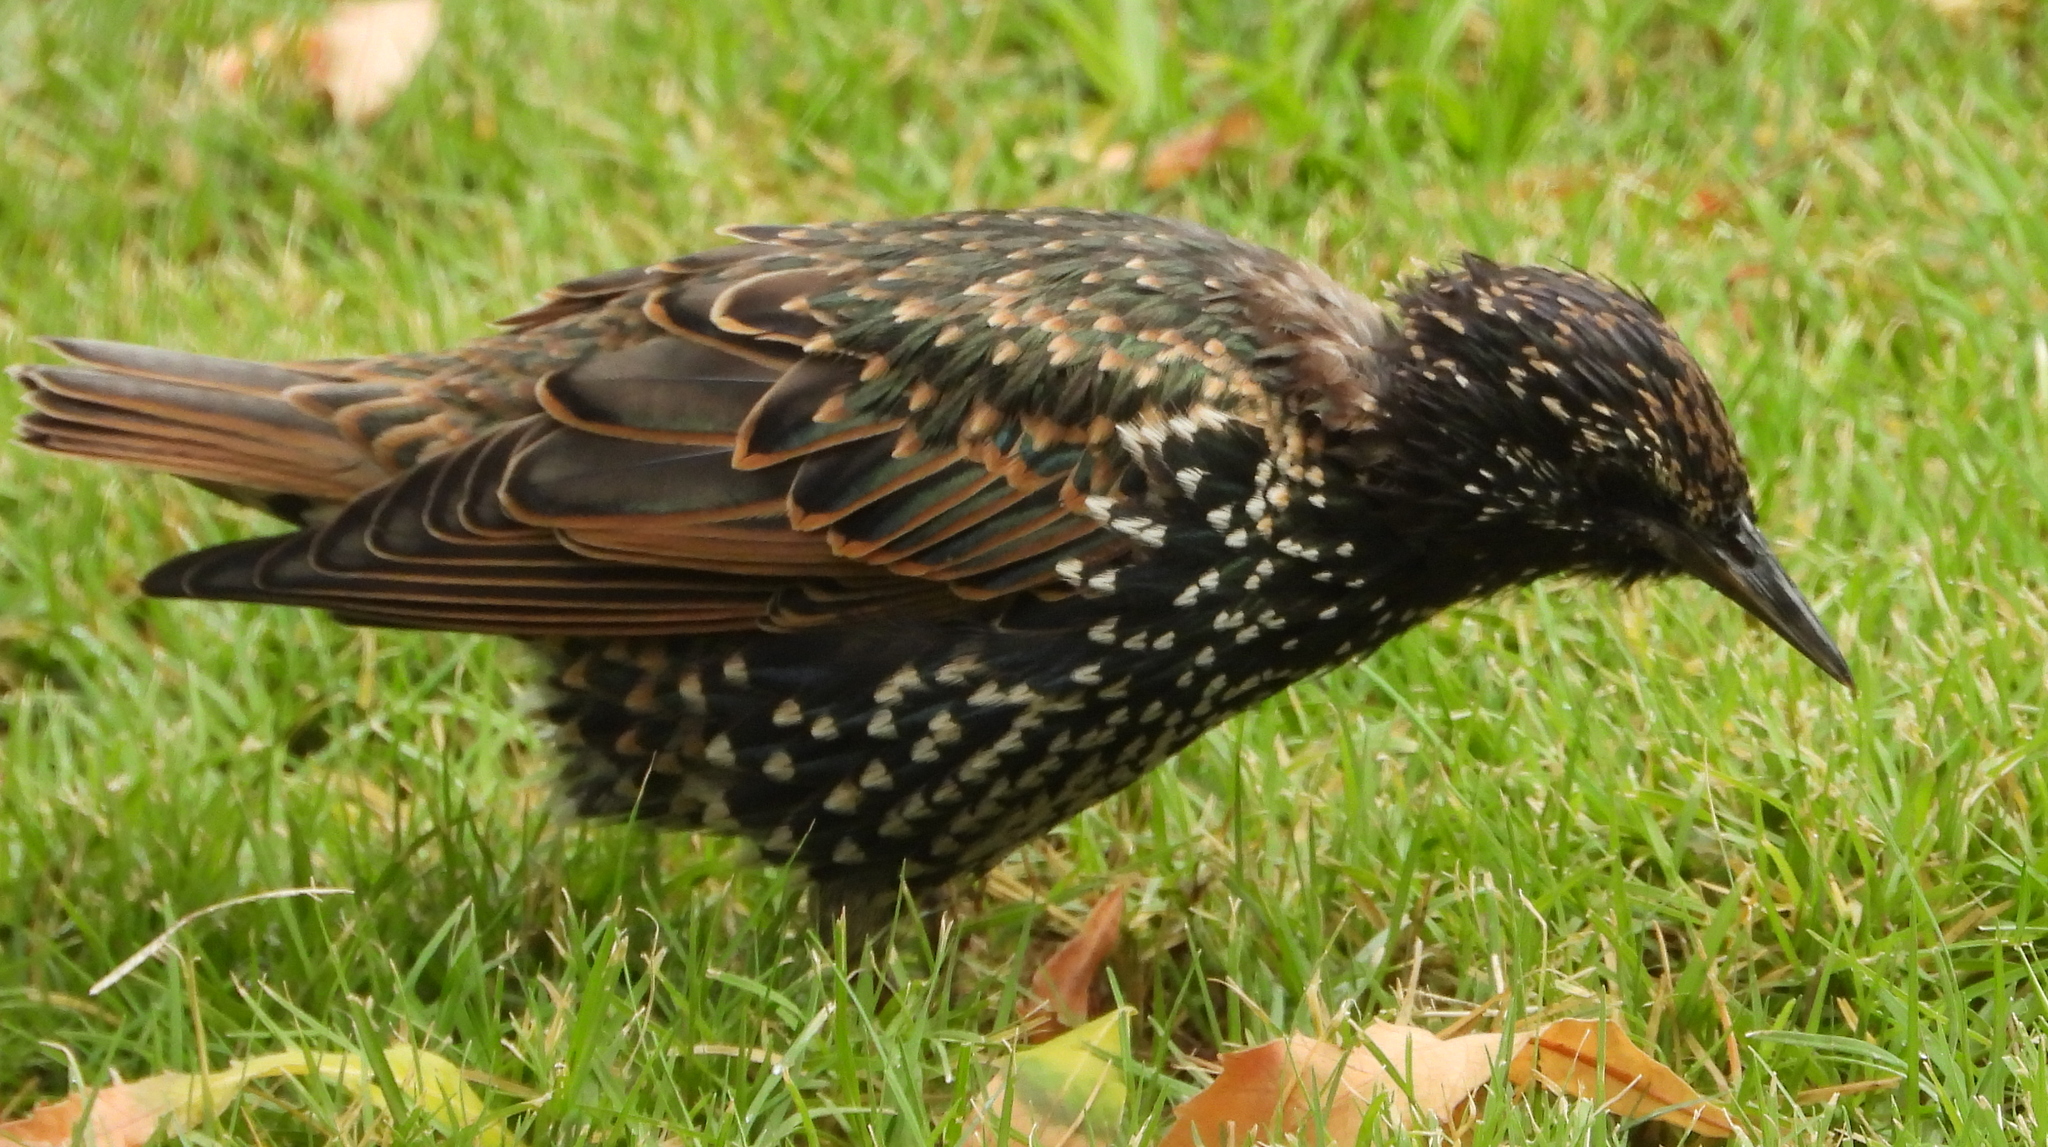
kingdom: Animalia
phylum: Chordata
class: Aves
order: Passeriformes
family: Sturnidae
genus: Sturnus
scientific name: Sturnus vulgaris
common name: Common starling
